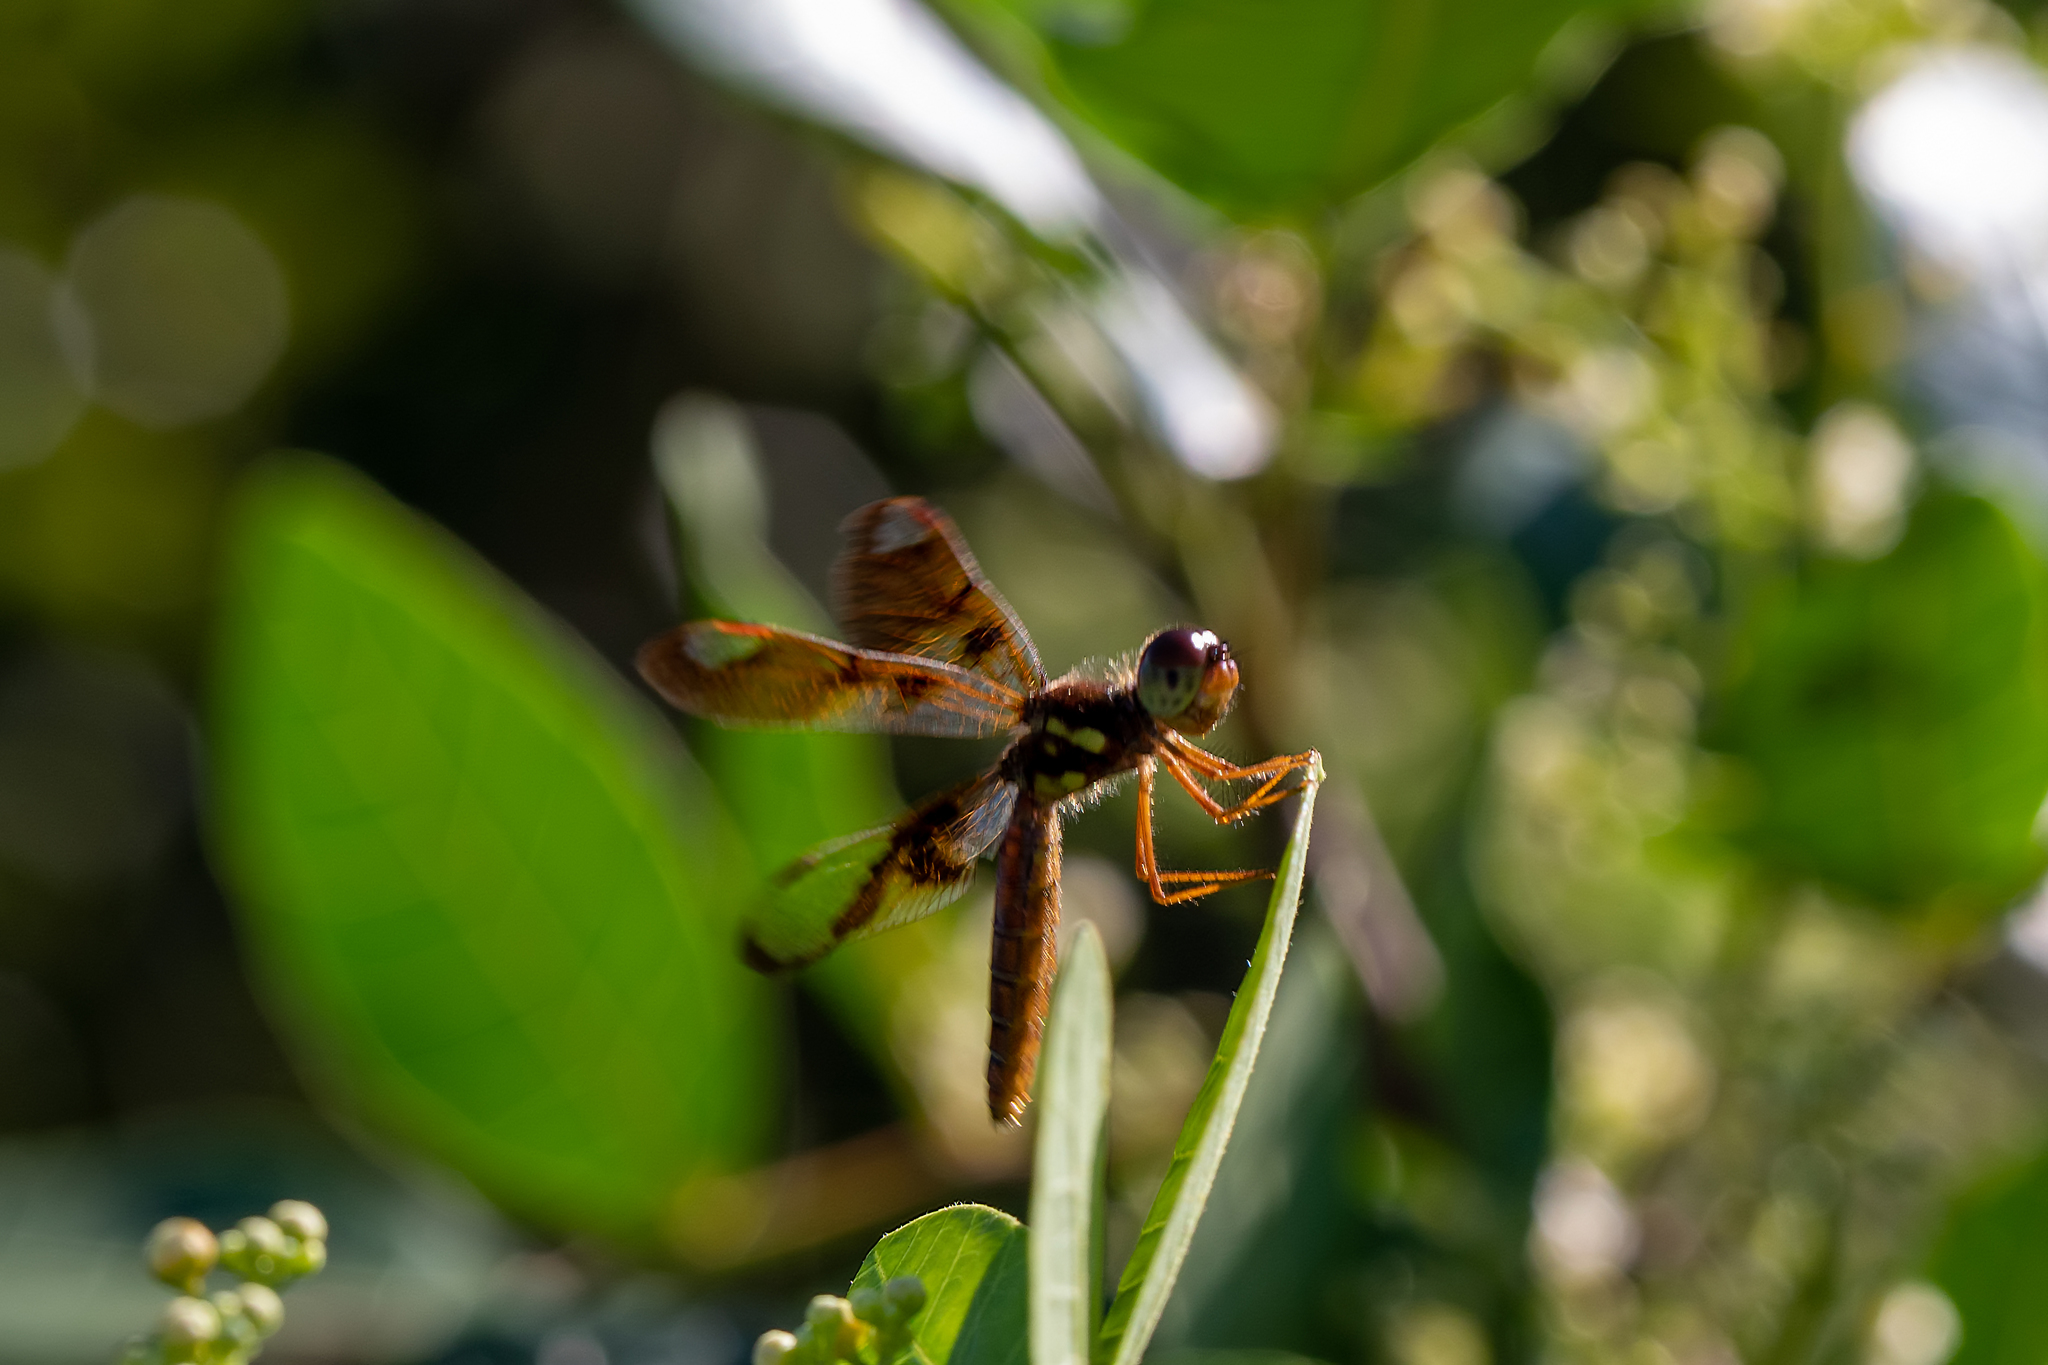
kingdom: Animalia
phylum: Arthropoda
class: Insecta
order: Odonata
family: Libellulidae
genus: Perithemis
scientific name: Perithemis tenera
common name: Eastern amberwing
